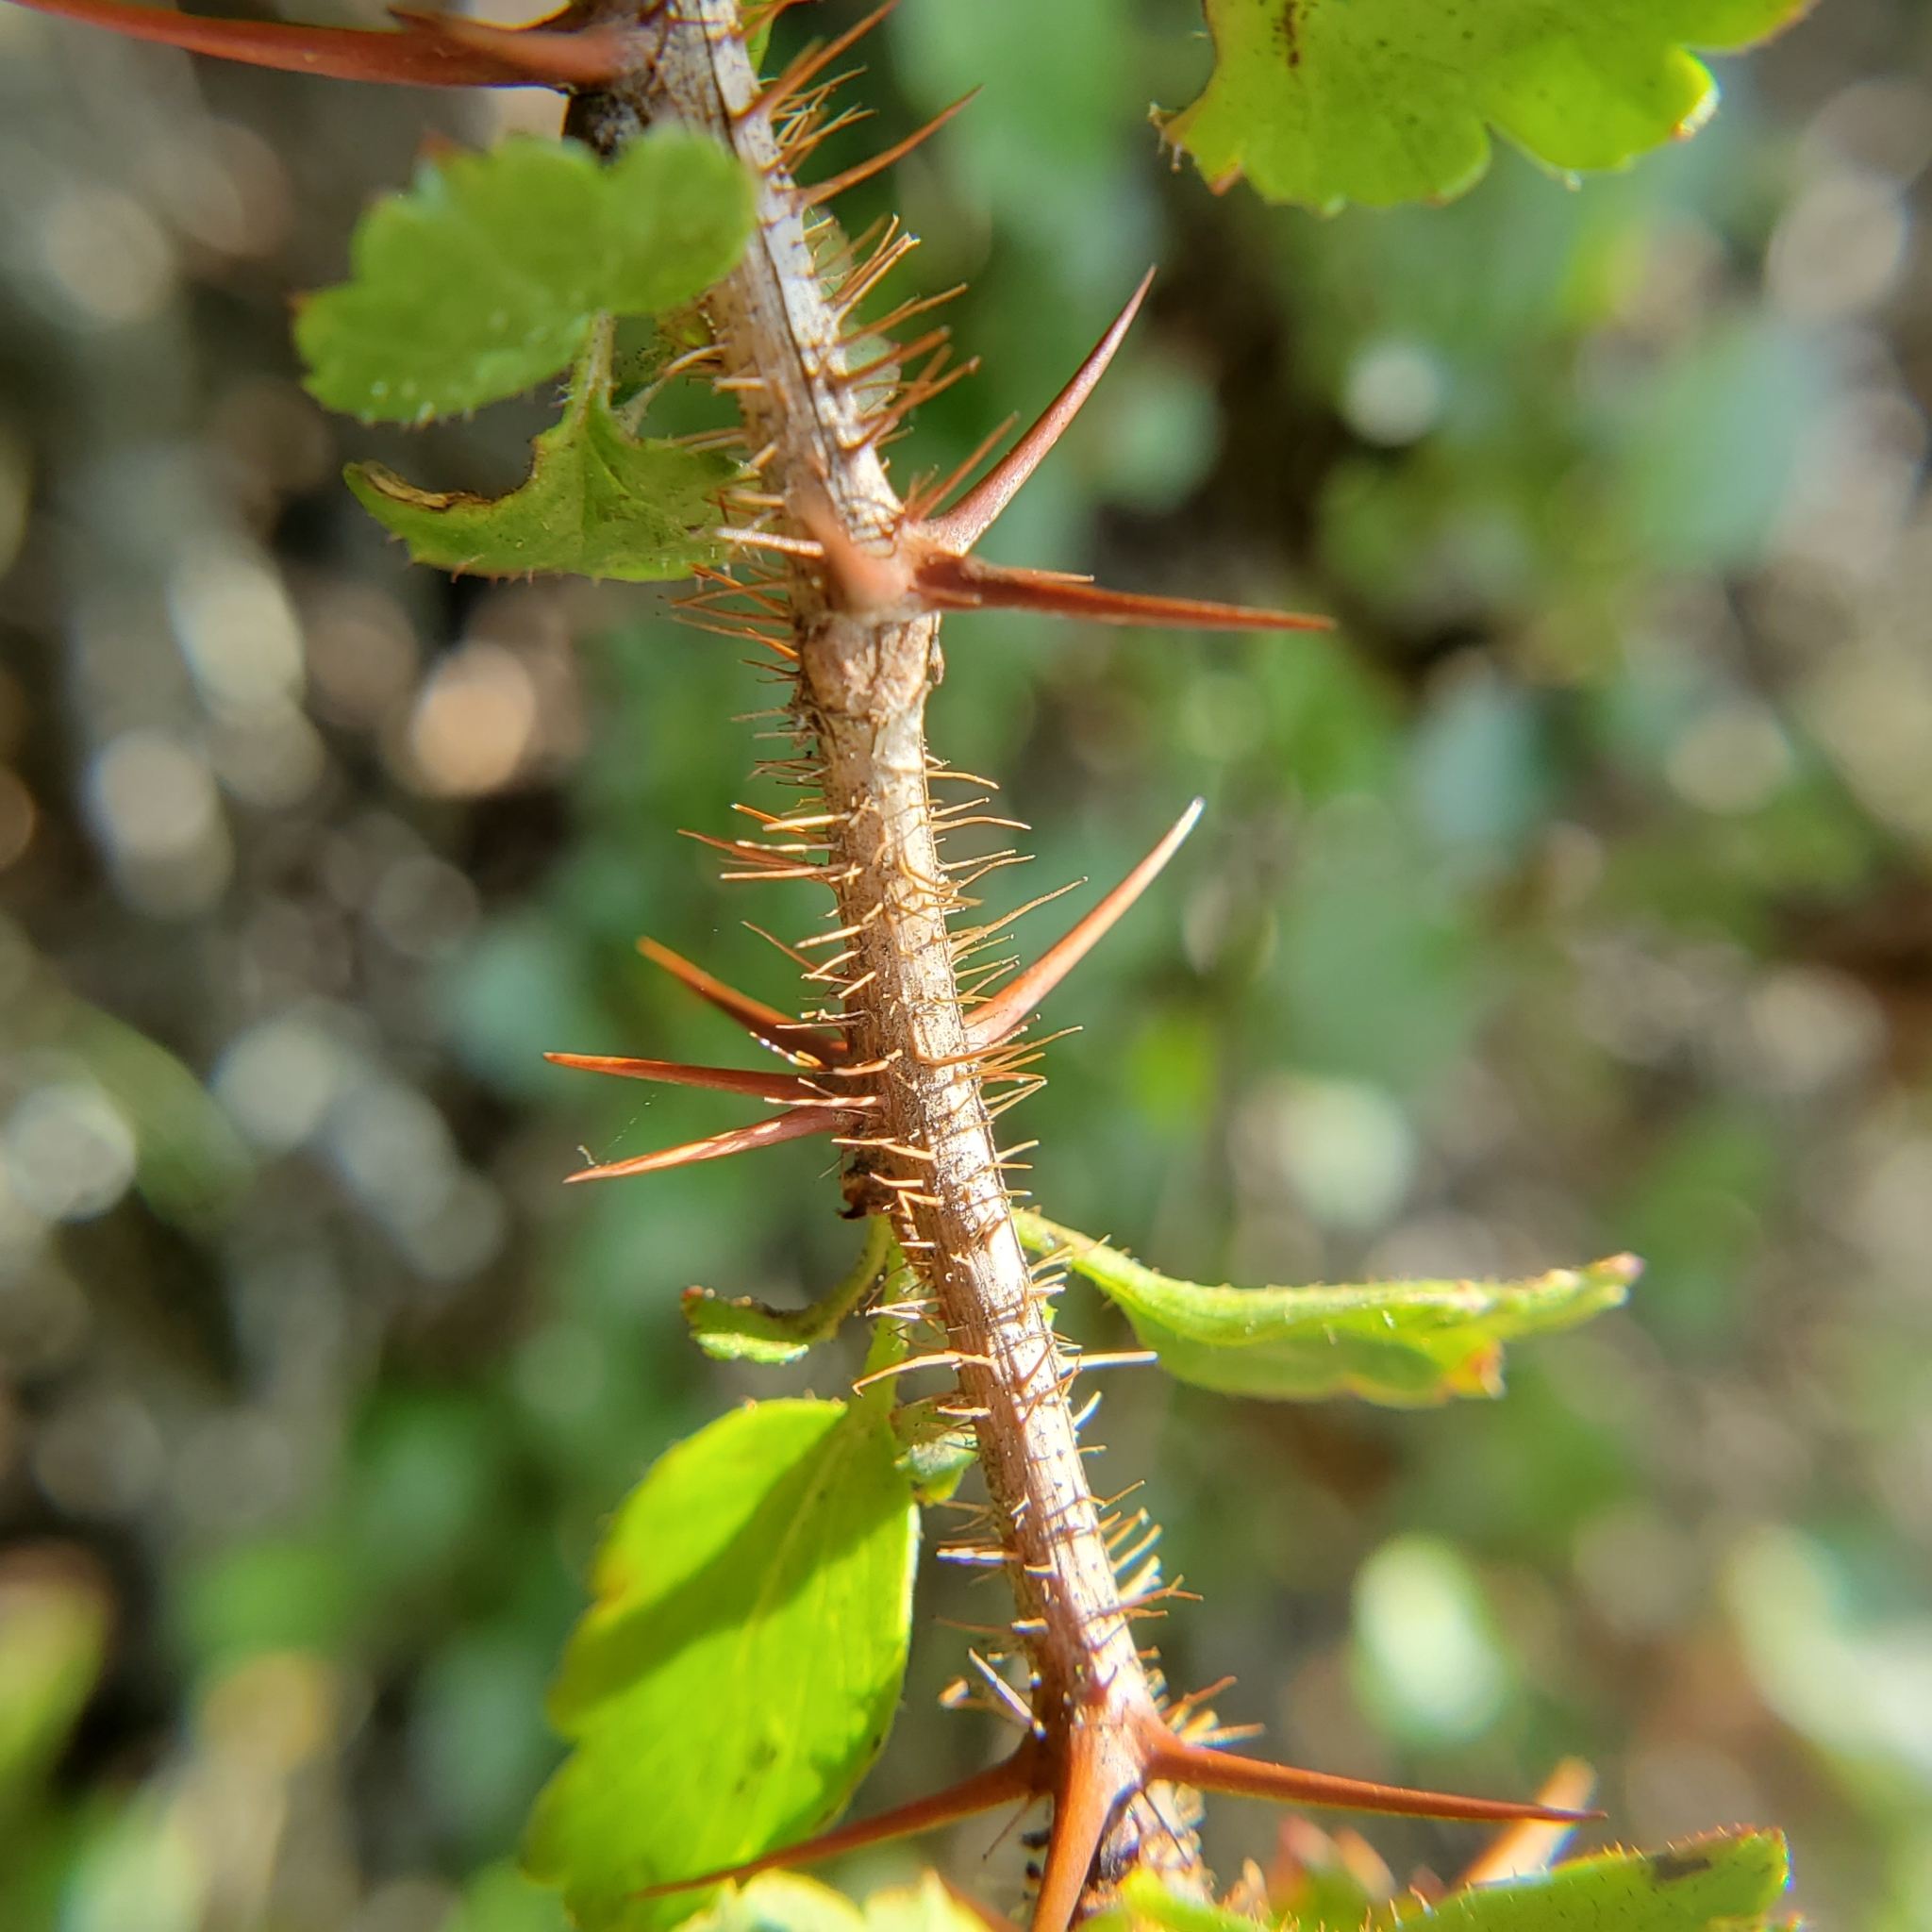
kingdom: Plantae
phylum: Tracheophyta
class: Magnoliopsida
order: Saxifragales
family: Grossulariaceae
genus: Ribes
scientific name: Ribes speciosum
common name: Fuchsia-flower gooseberry
